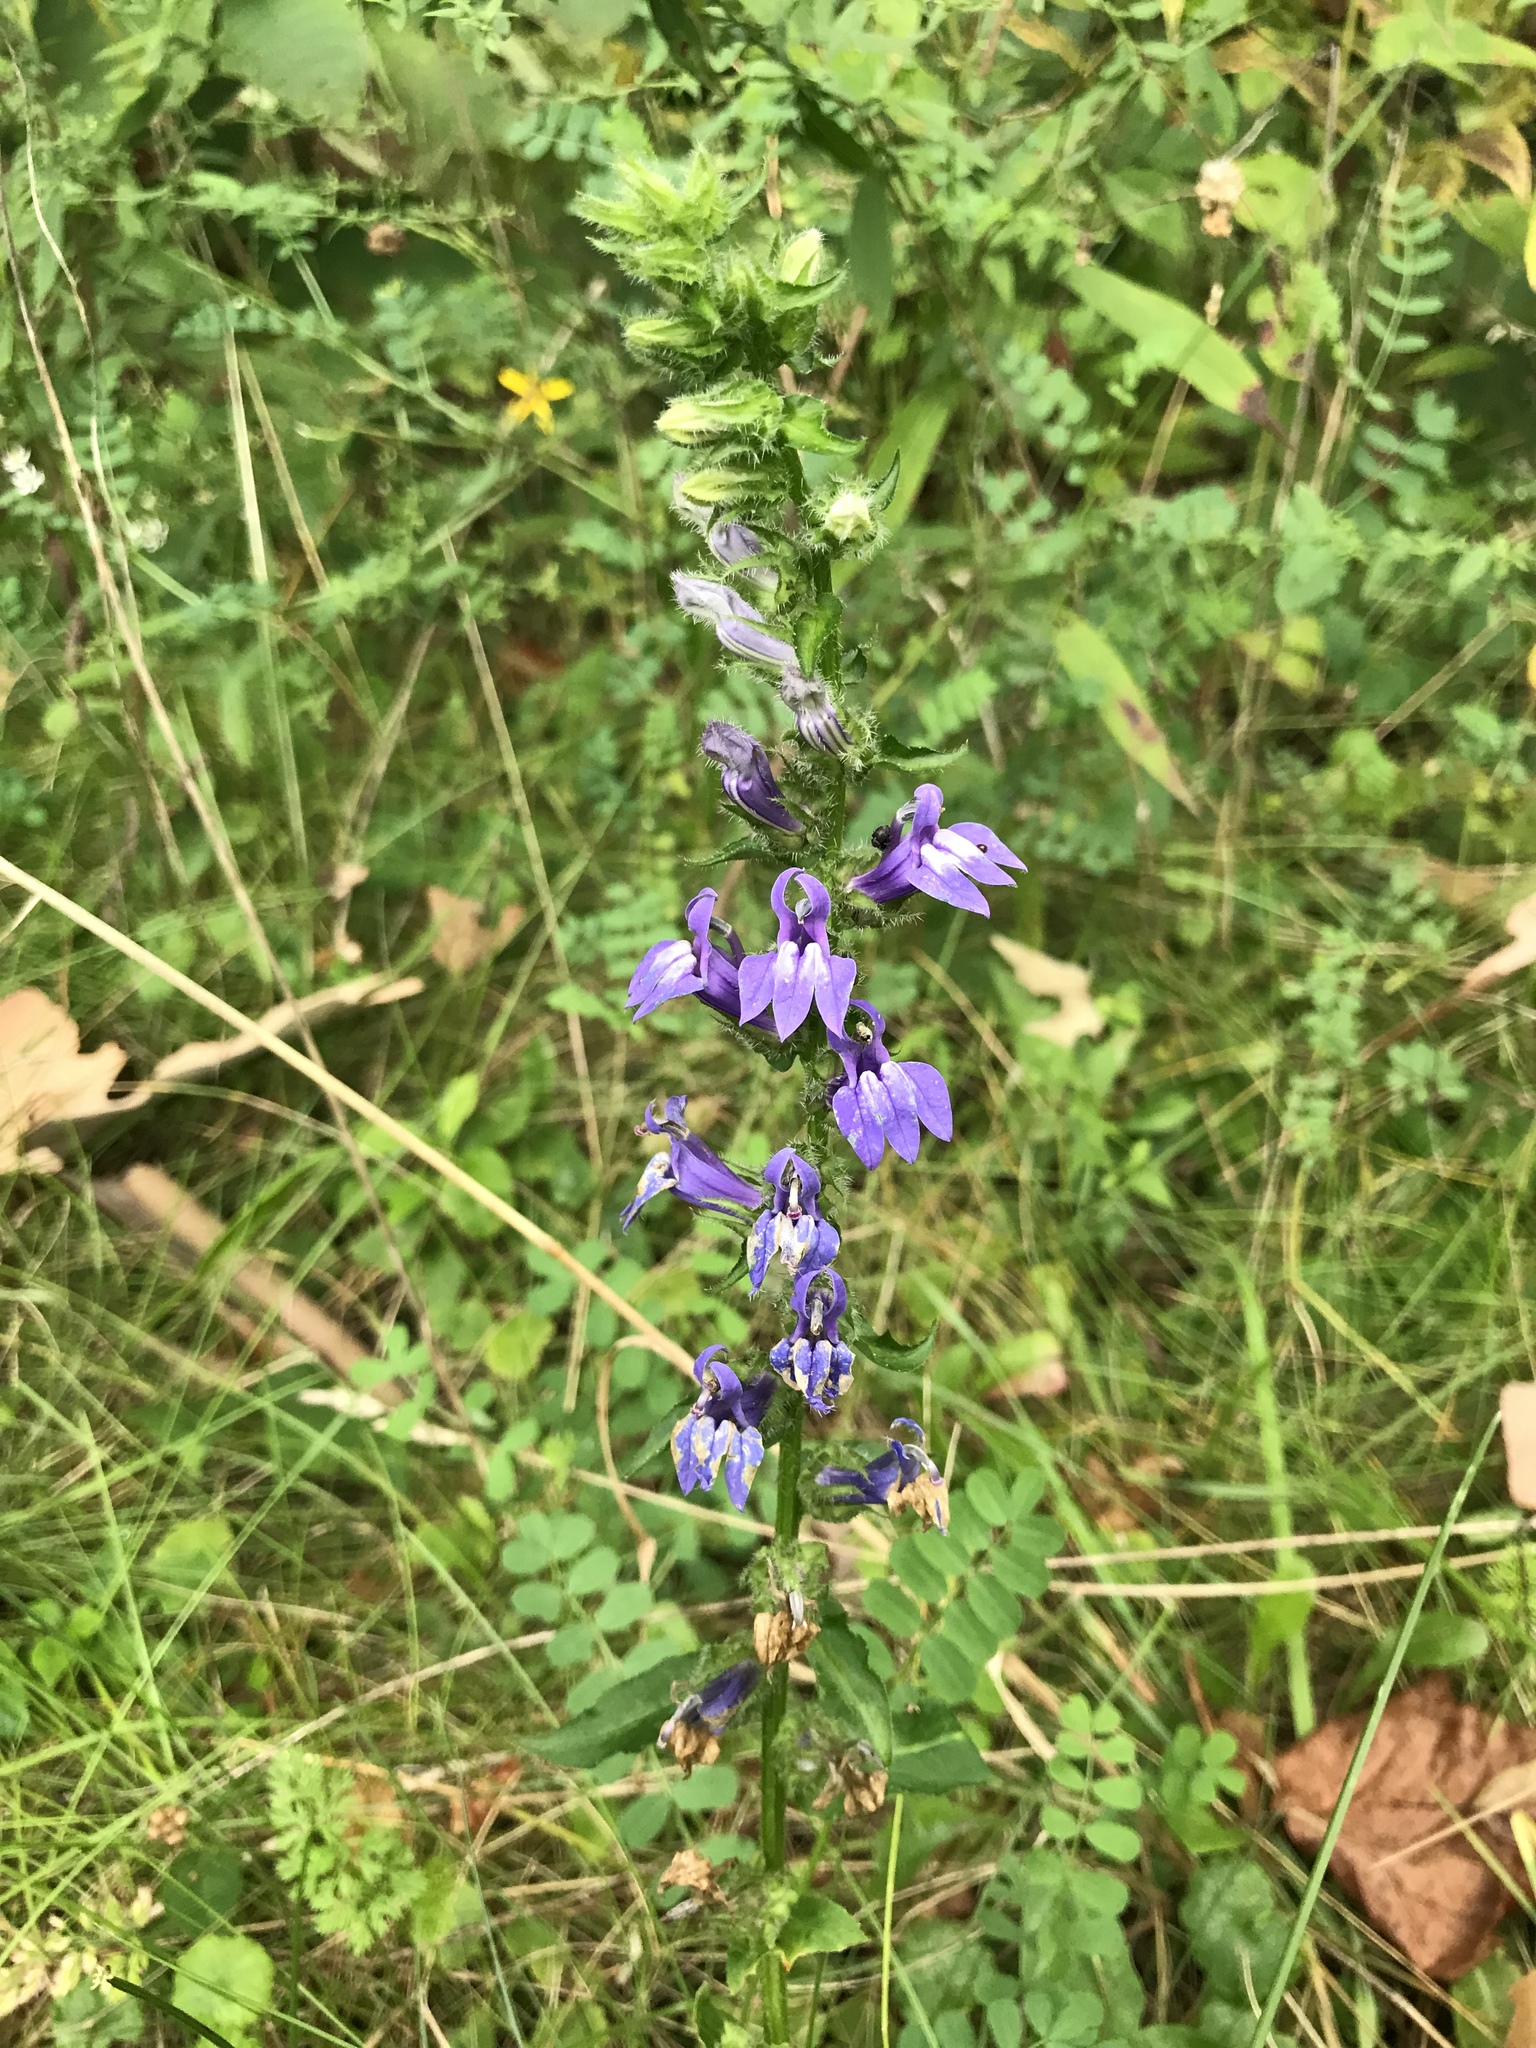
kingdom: Plantae
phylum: Tracheophyta
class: Magnoliopsida
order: Asterales
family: Campanulaceae
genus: Lobelia
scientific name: Lobelia siphilitica
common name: Great lobelia
